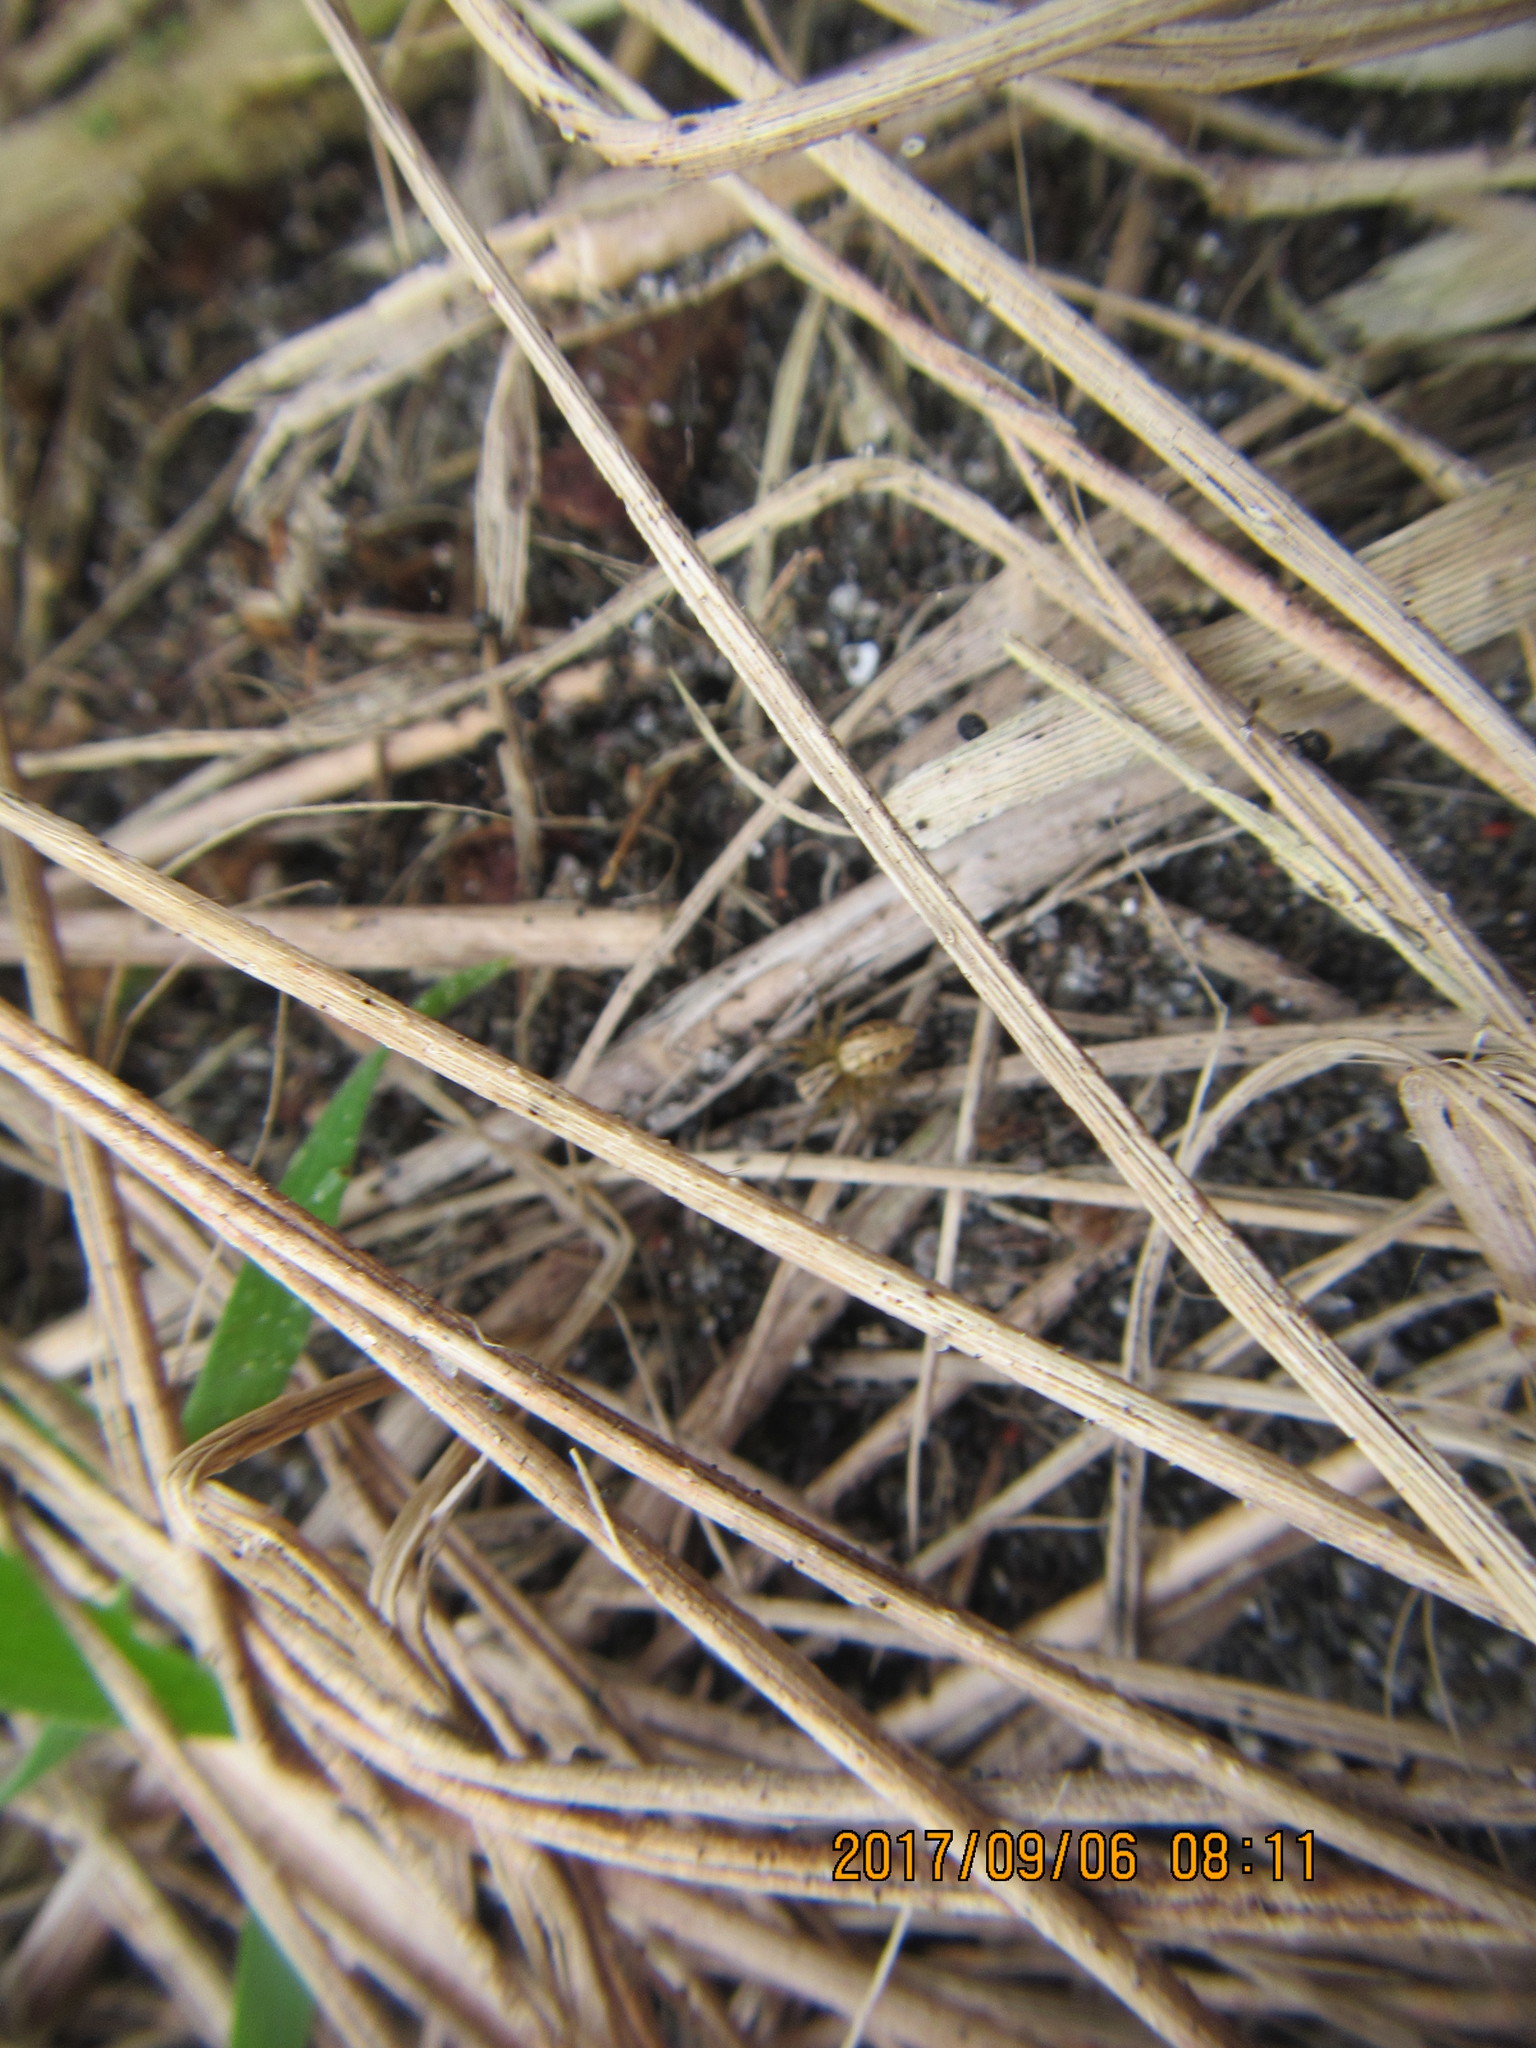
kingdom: Animalia
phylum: Arthropoda
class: Arachnida
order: Araneae
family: Oxyopidae
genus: Oxyopes
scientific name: Oxyopes gracilipes
